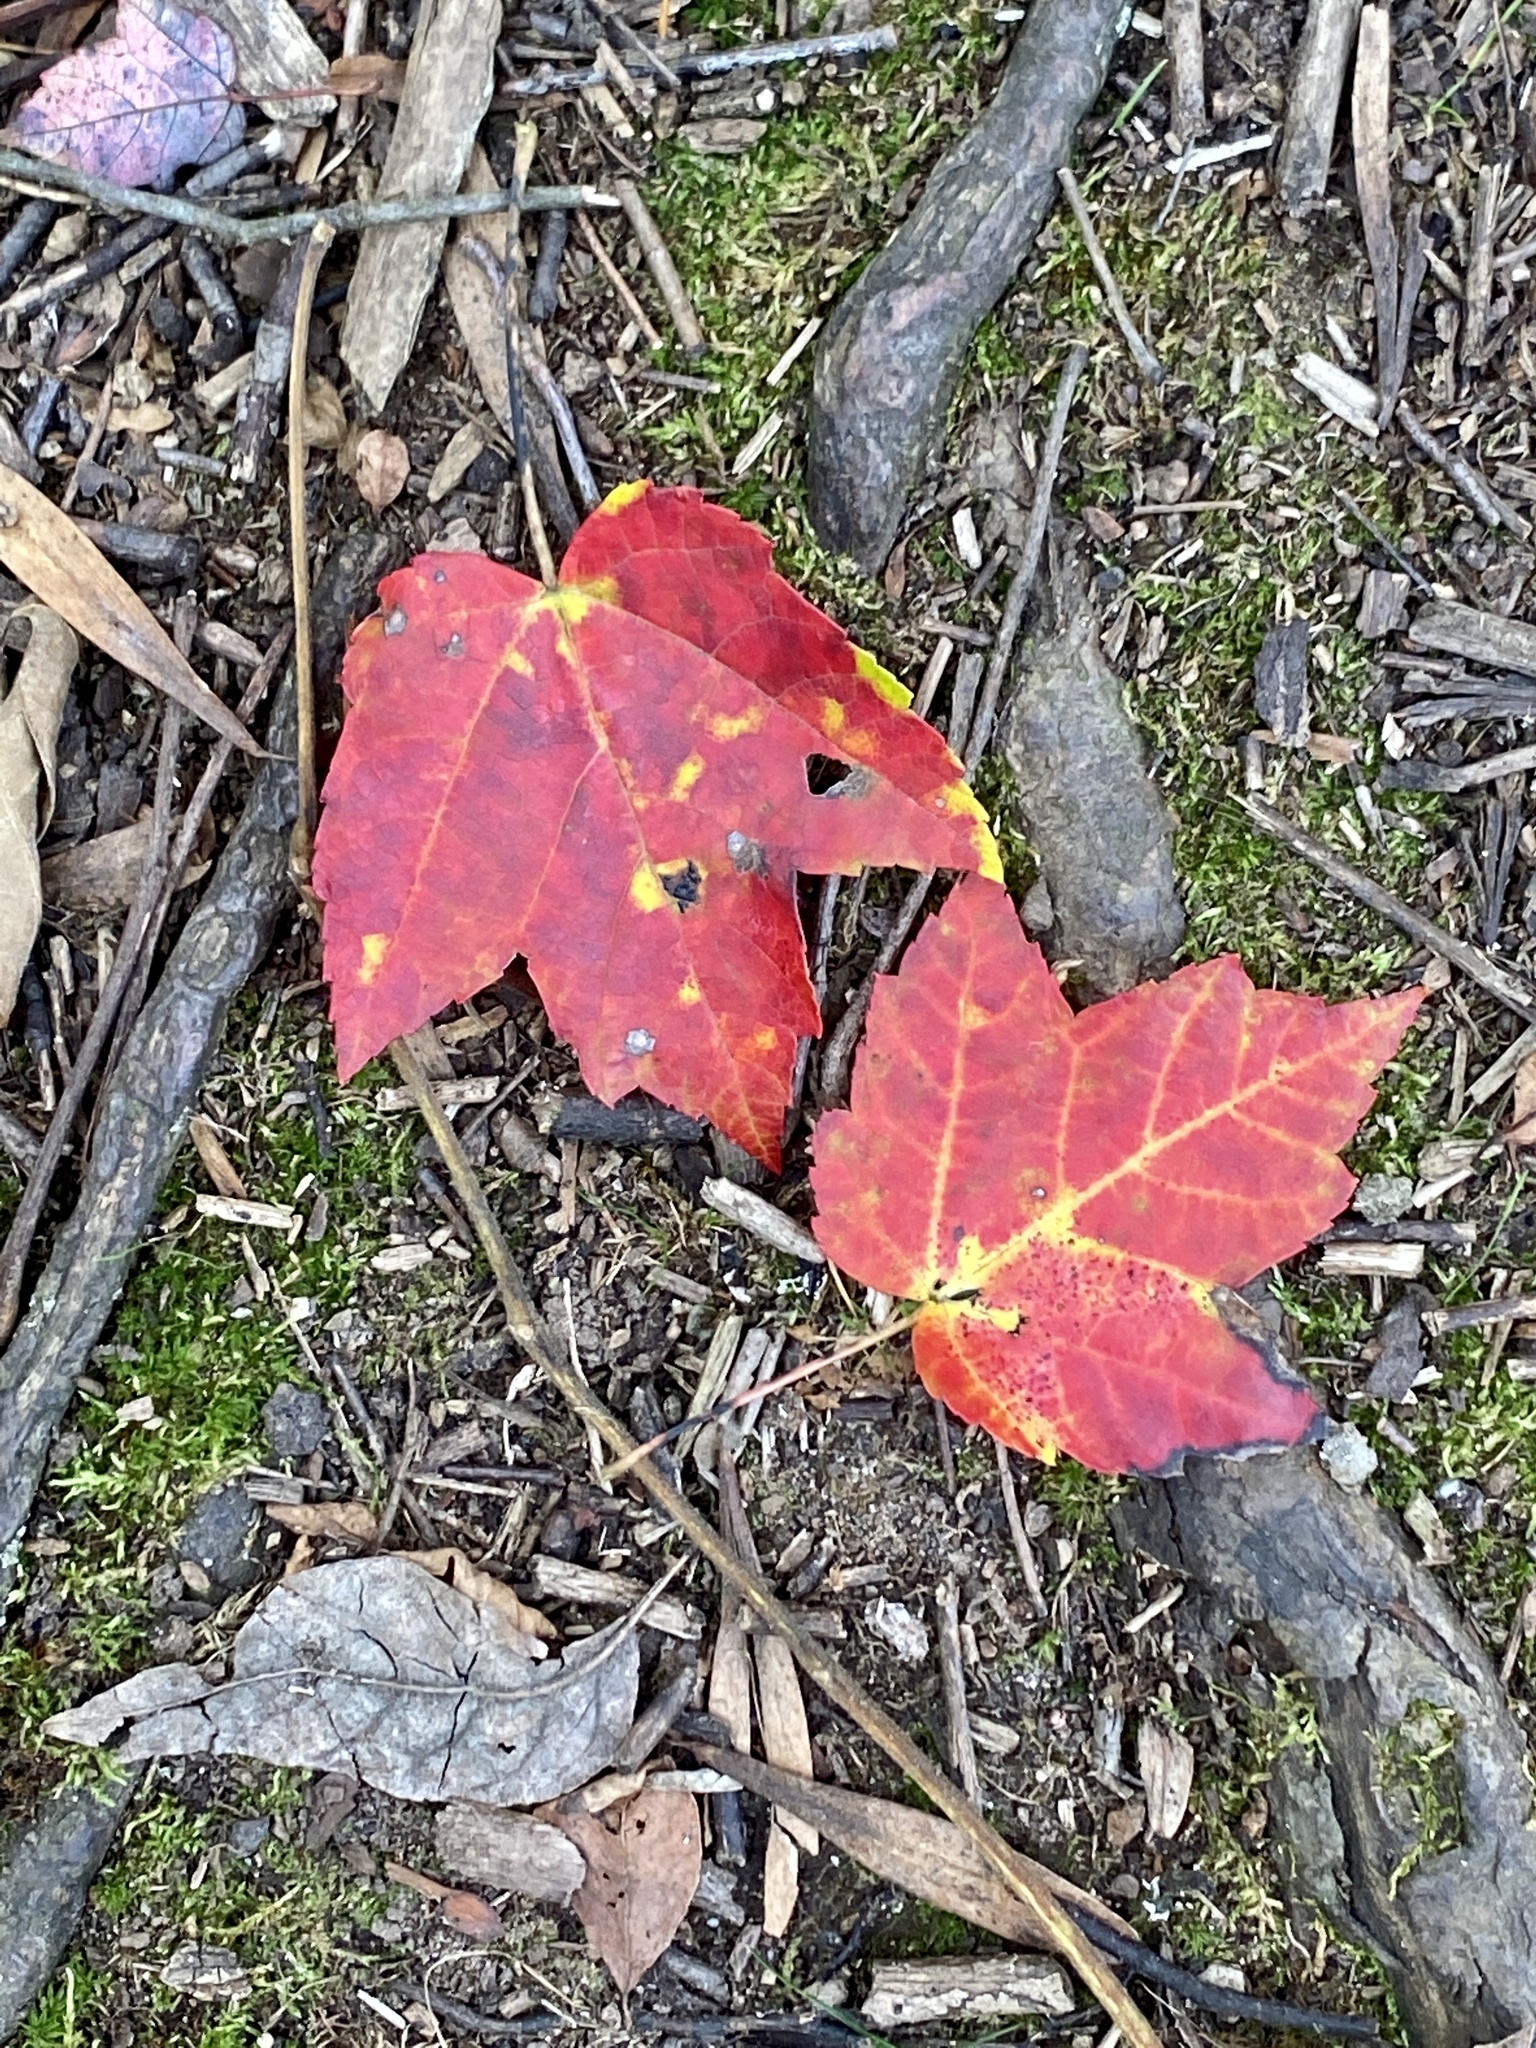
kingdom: Plantae
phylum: Tracheophyta
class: Magnoliopsida
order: Sapindales
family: Sapindaceae
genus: Acer
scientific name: Acer rubrum
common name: Red maple
